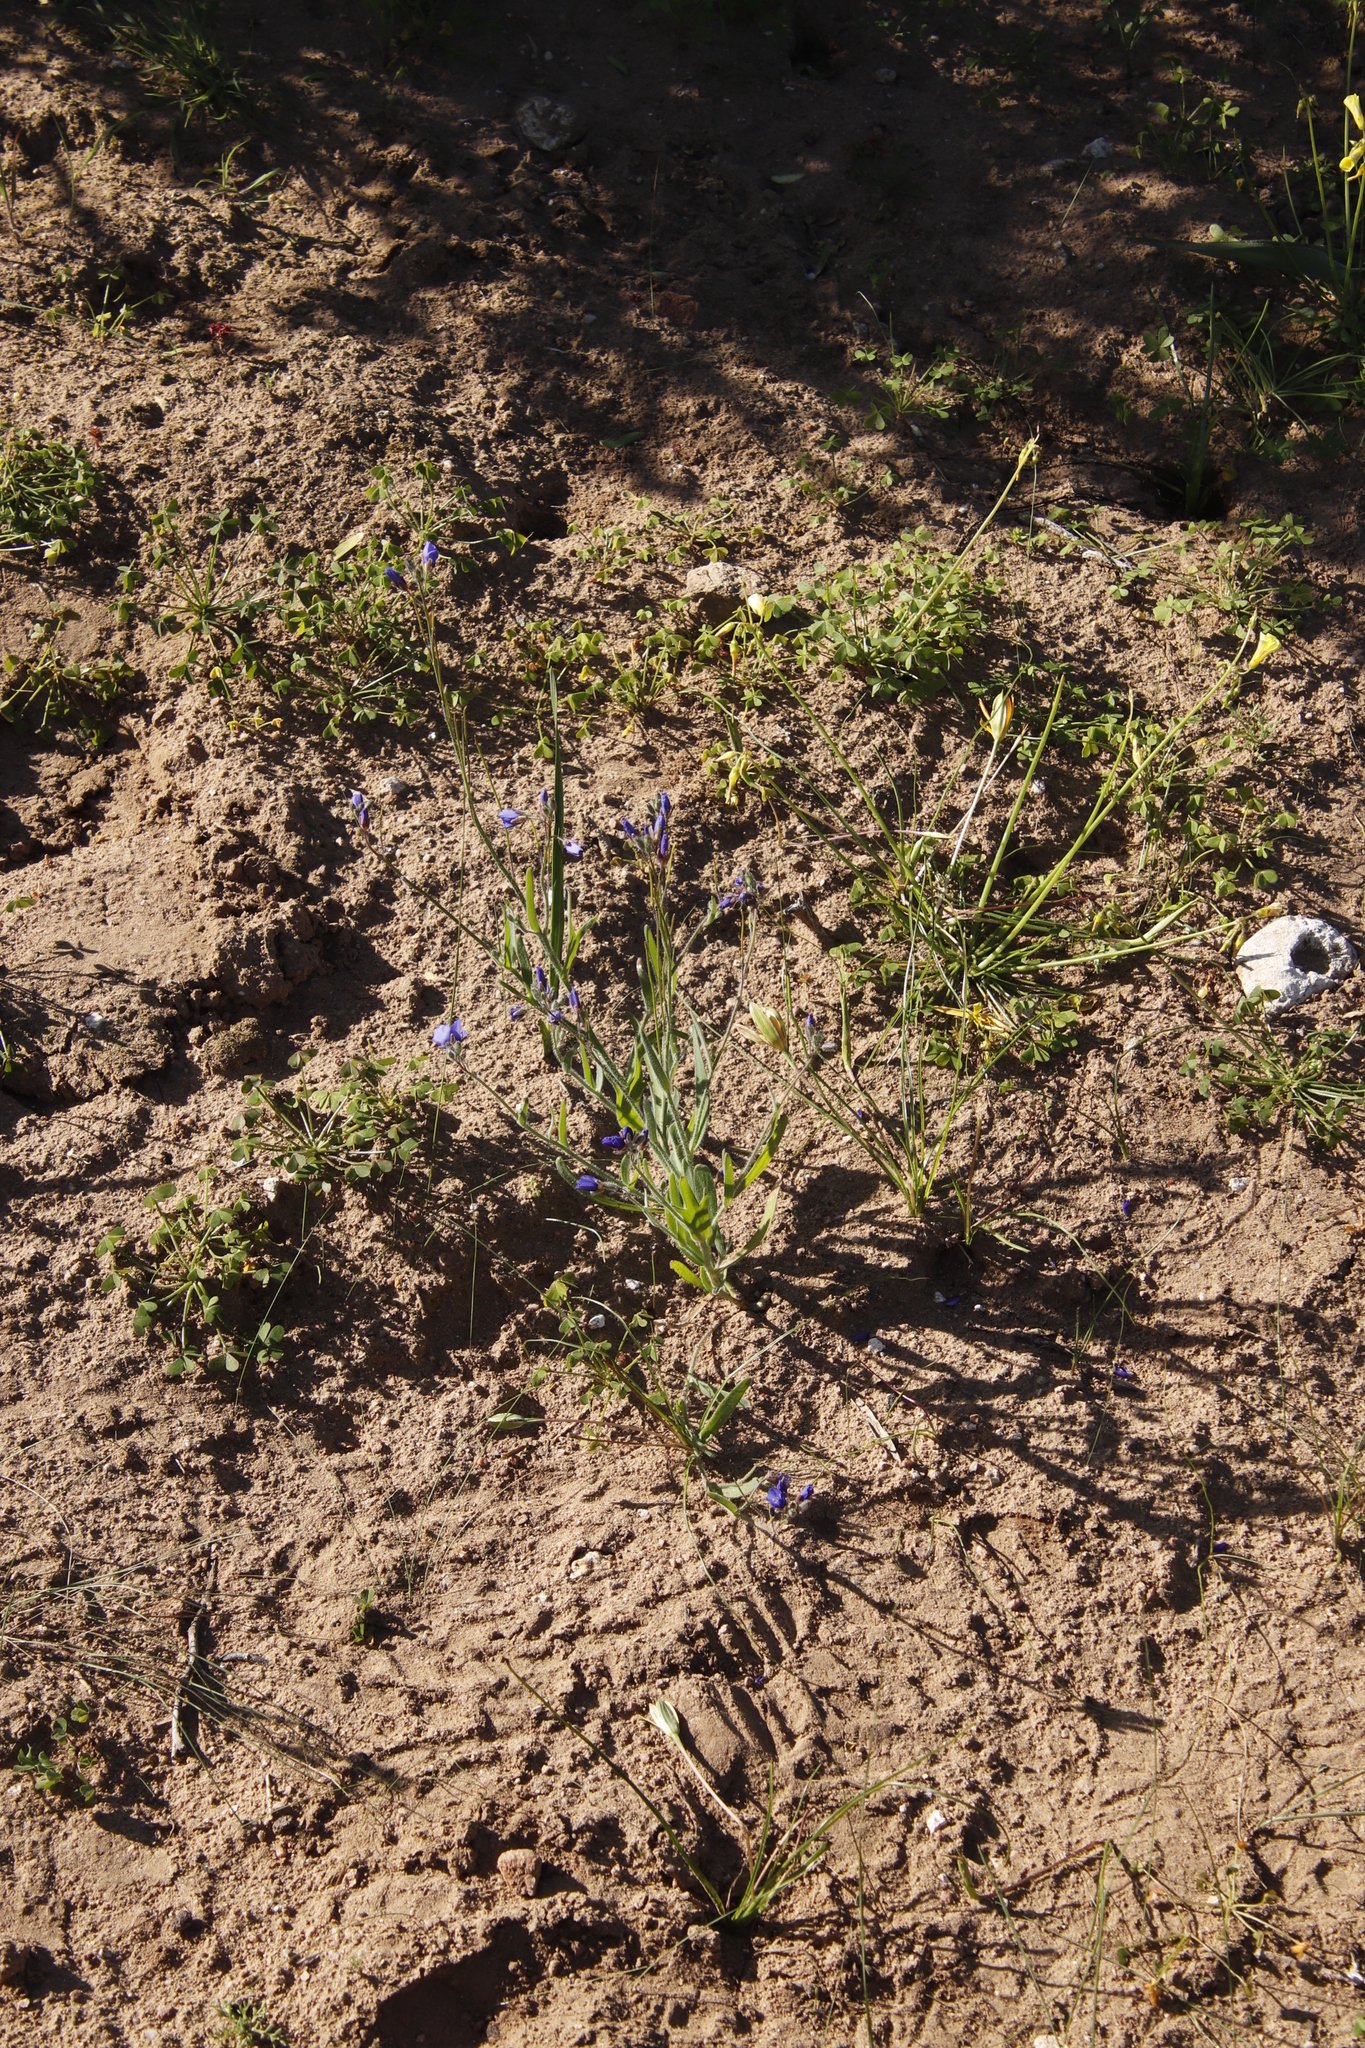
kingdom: Plantae
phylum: Tracheophyta
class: Magnoliopsida
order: Brassicales
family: Brassicaceae
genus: Heliophila
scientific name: Heliophila africana
